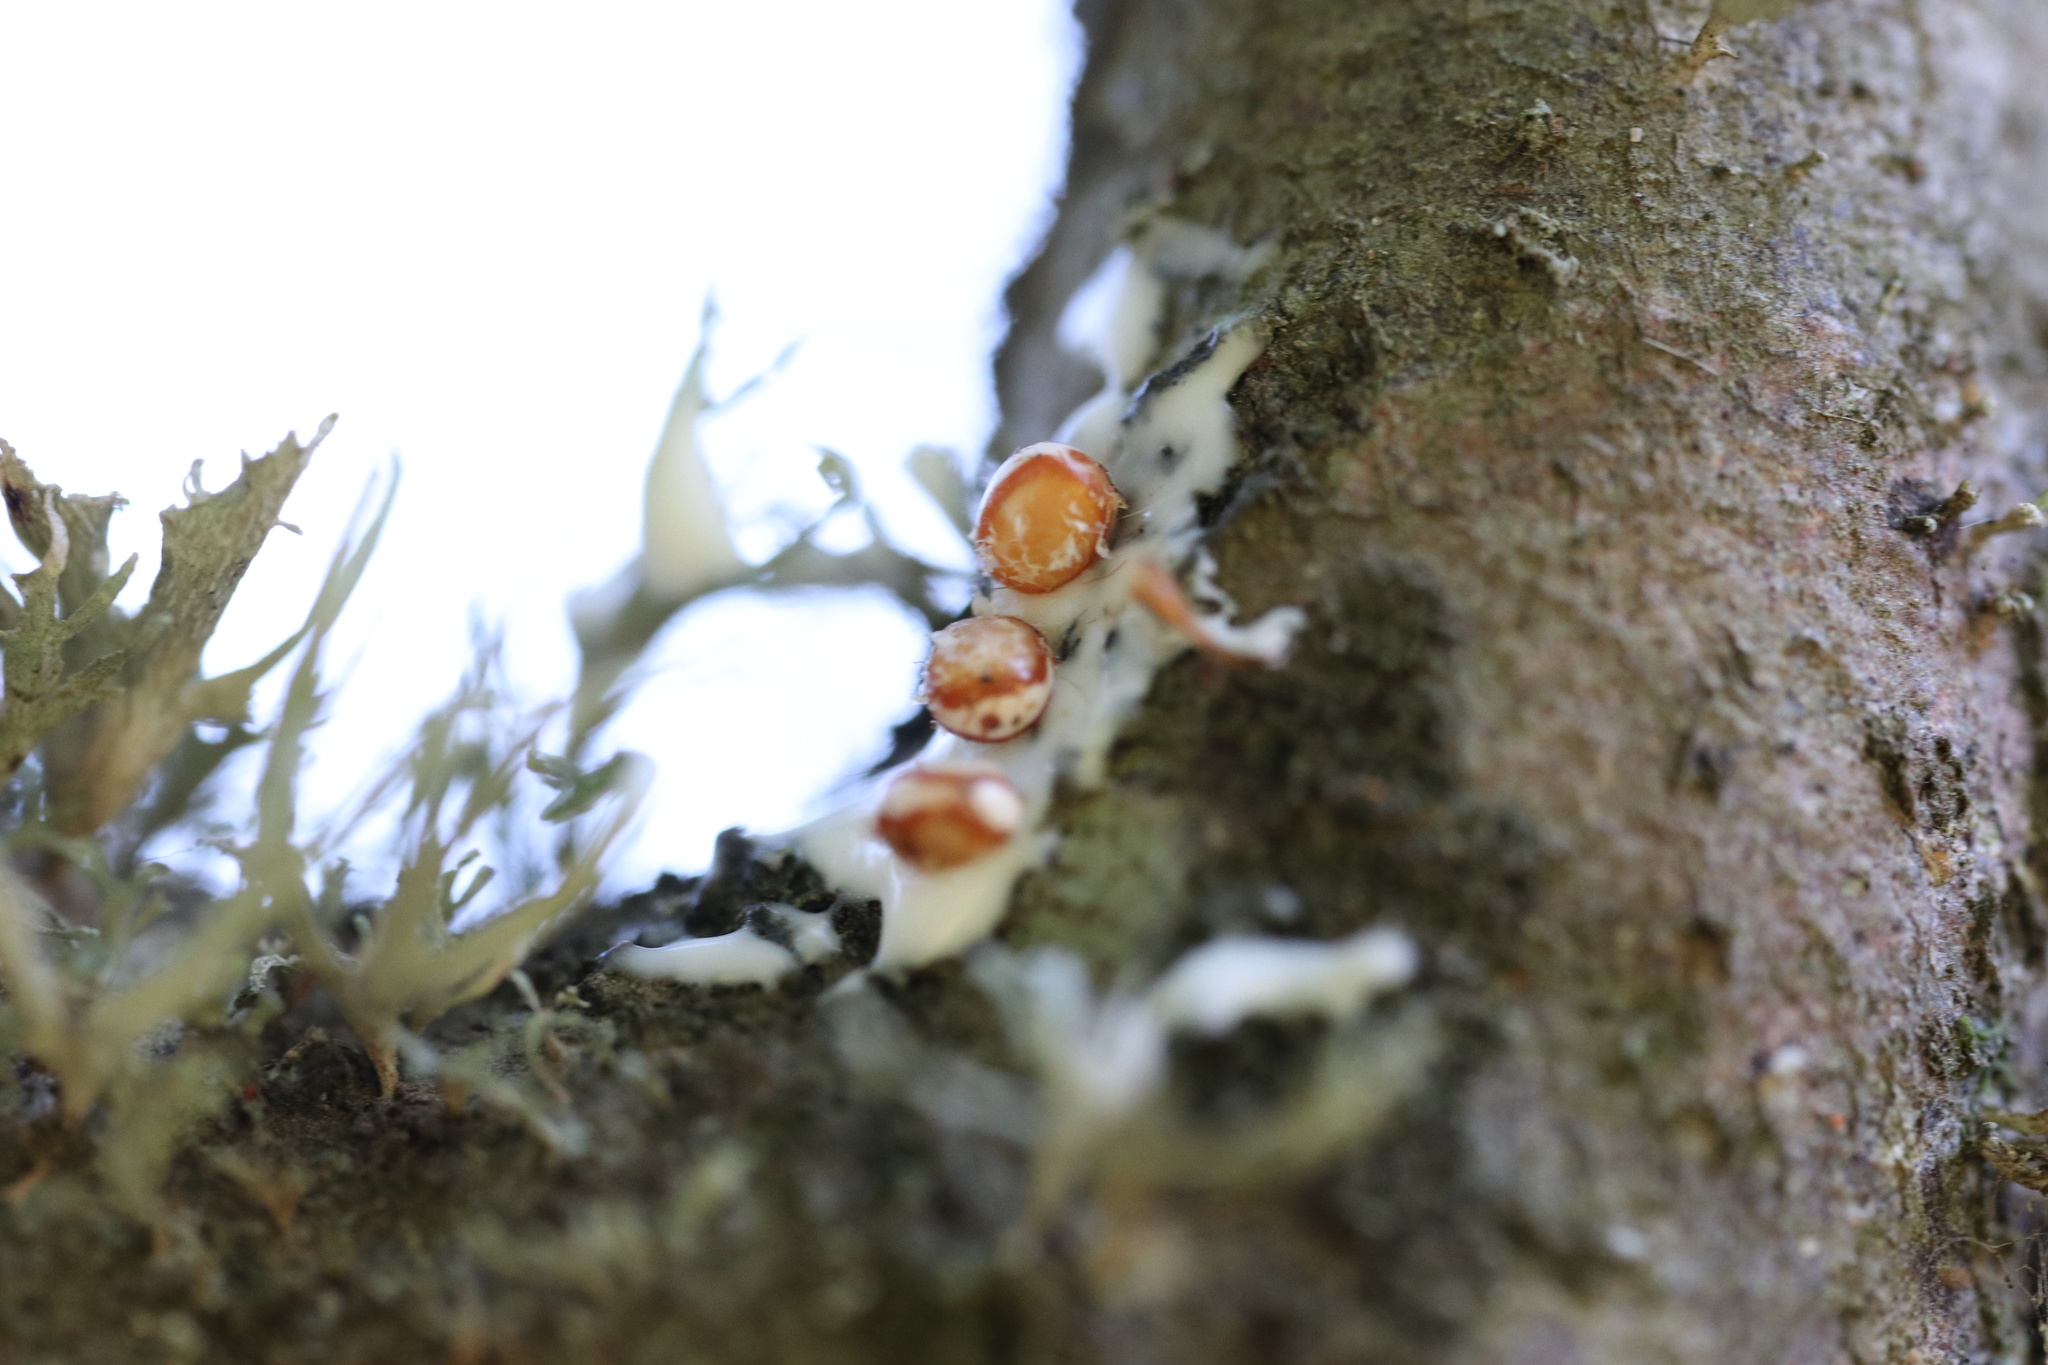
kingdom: Animalia
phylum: Arthropoda
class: Insecta
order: Lepidoptera
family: Saturniidae
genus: Polythysana
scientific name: Polythysana rubrescens
